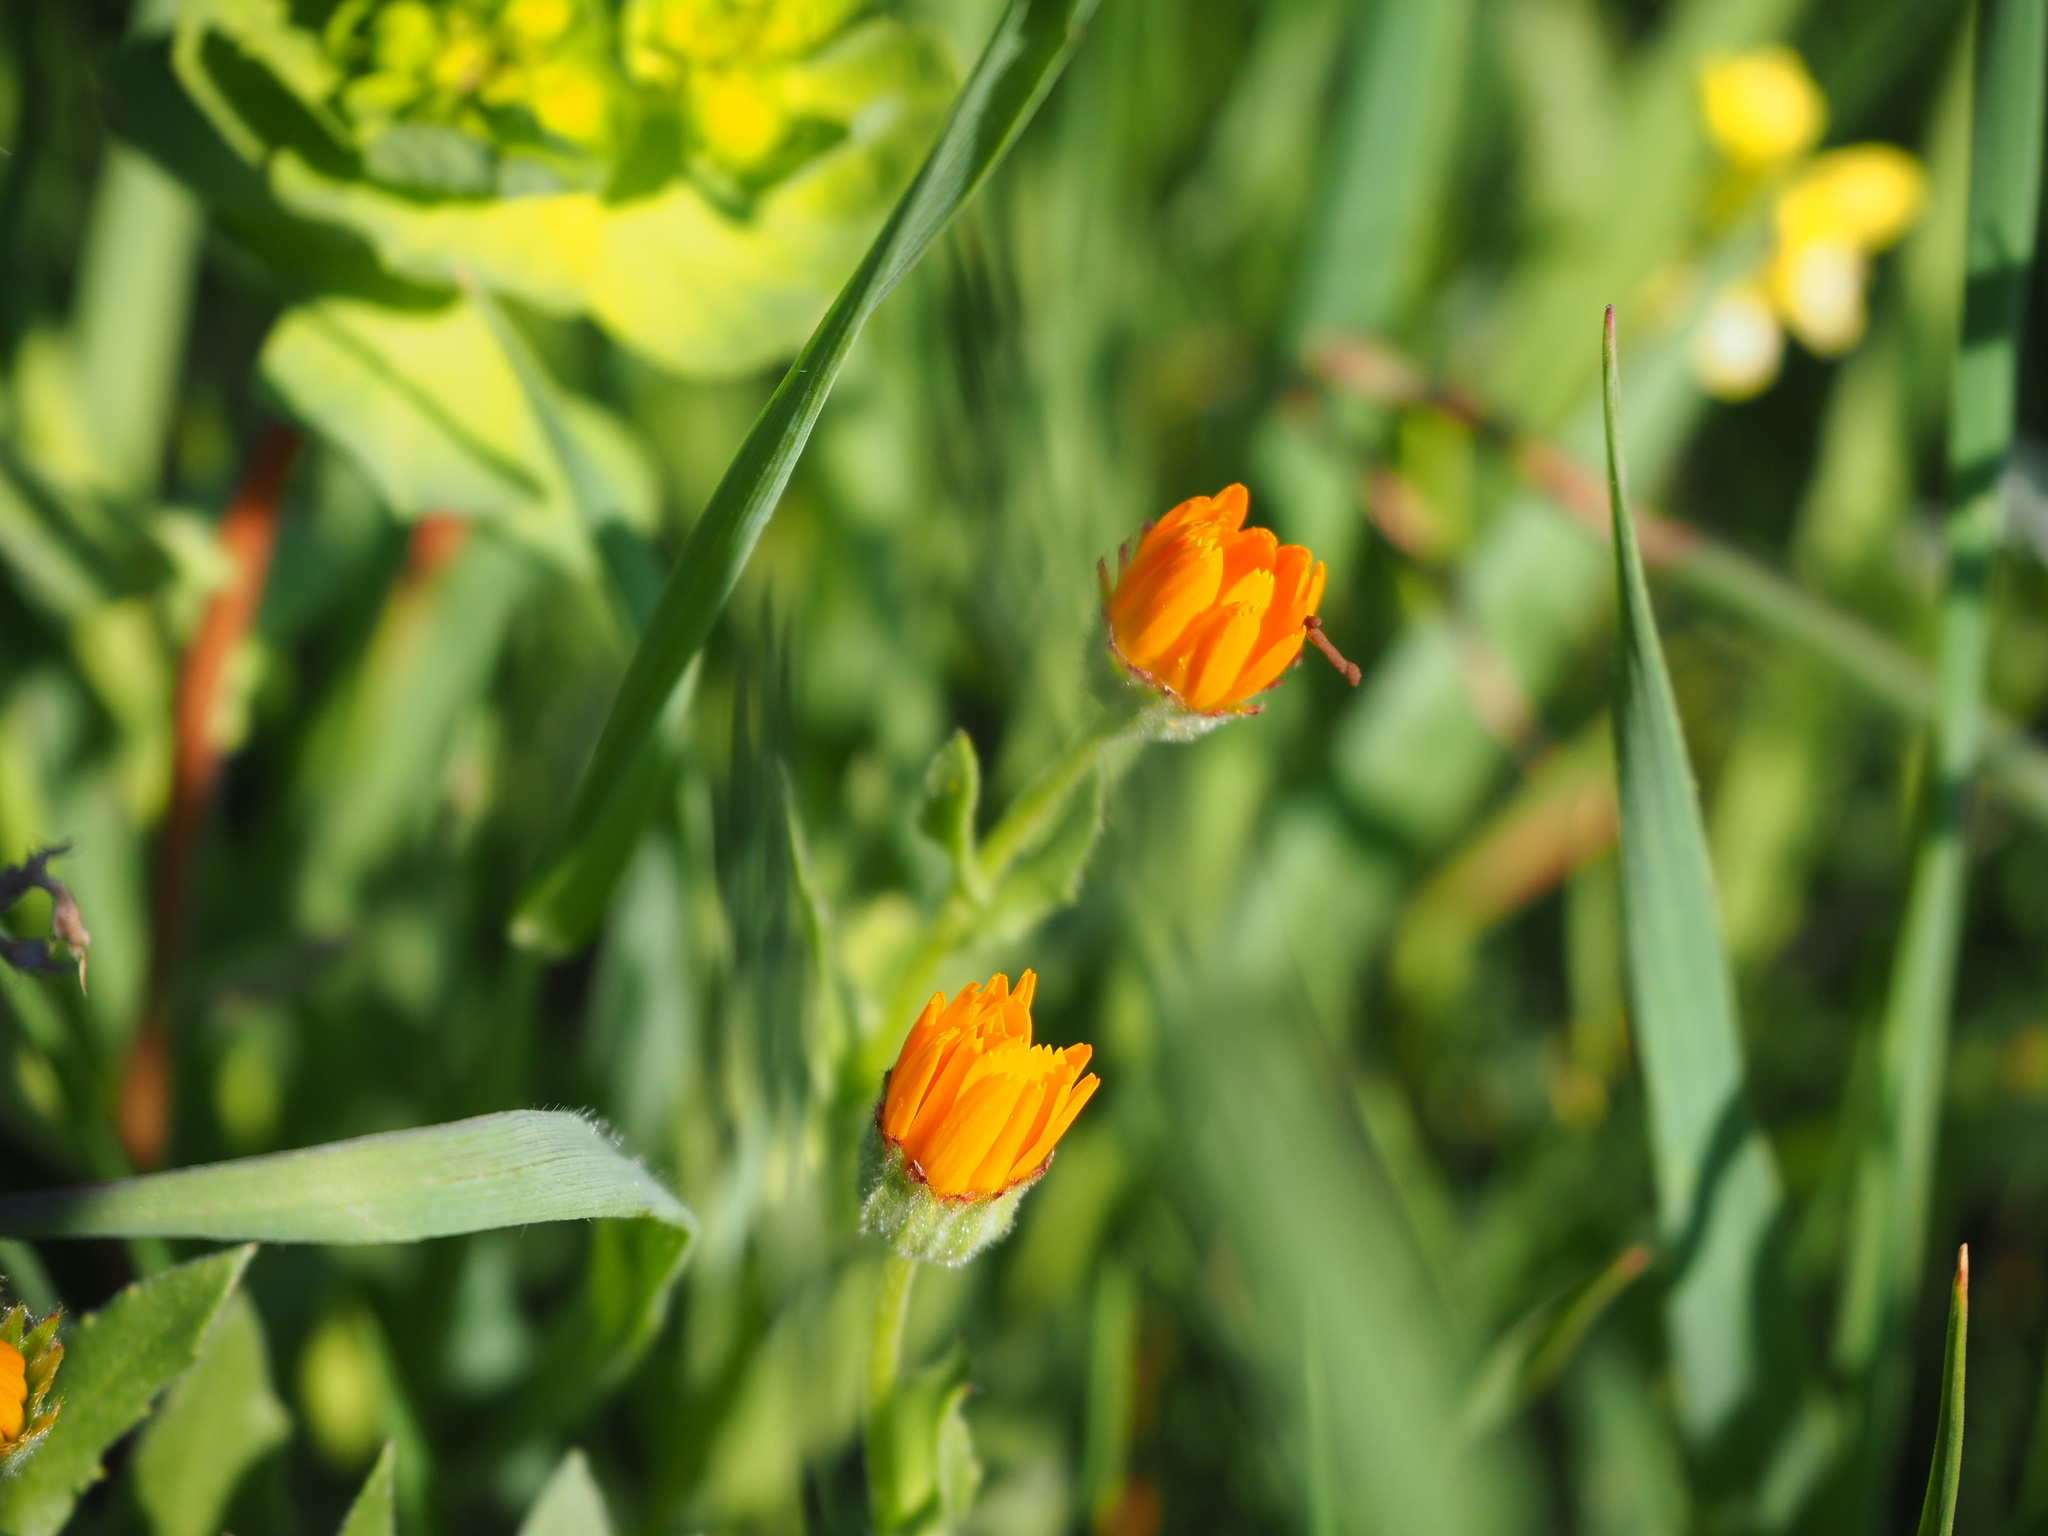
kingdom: Plantae
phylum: Tracheophyta
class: Magnoliopsida
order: Asterales
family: Asteraceae
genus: Calendula
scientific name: Calendula arvensis
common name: Field marigold
